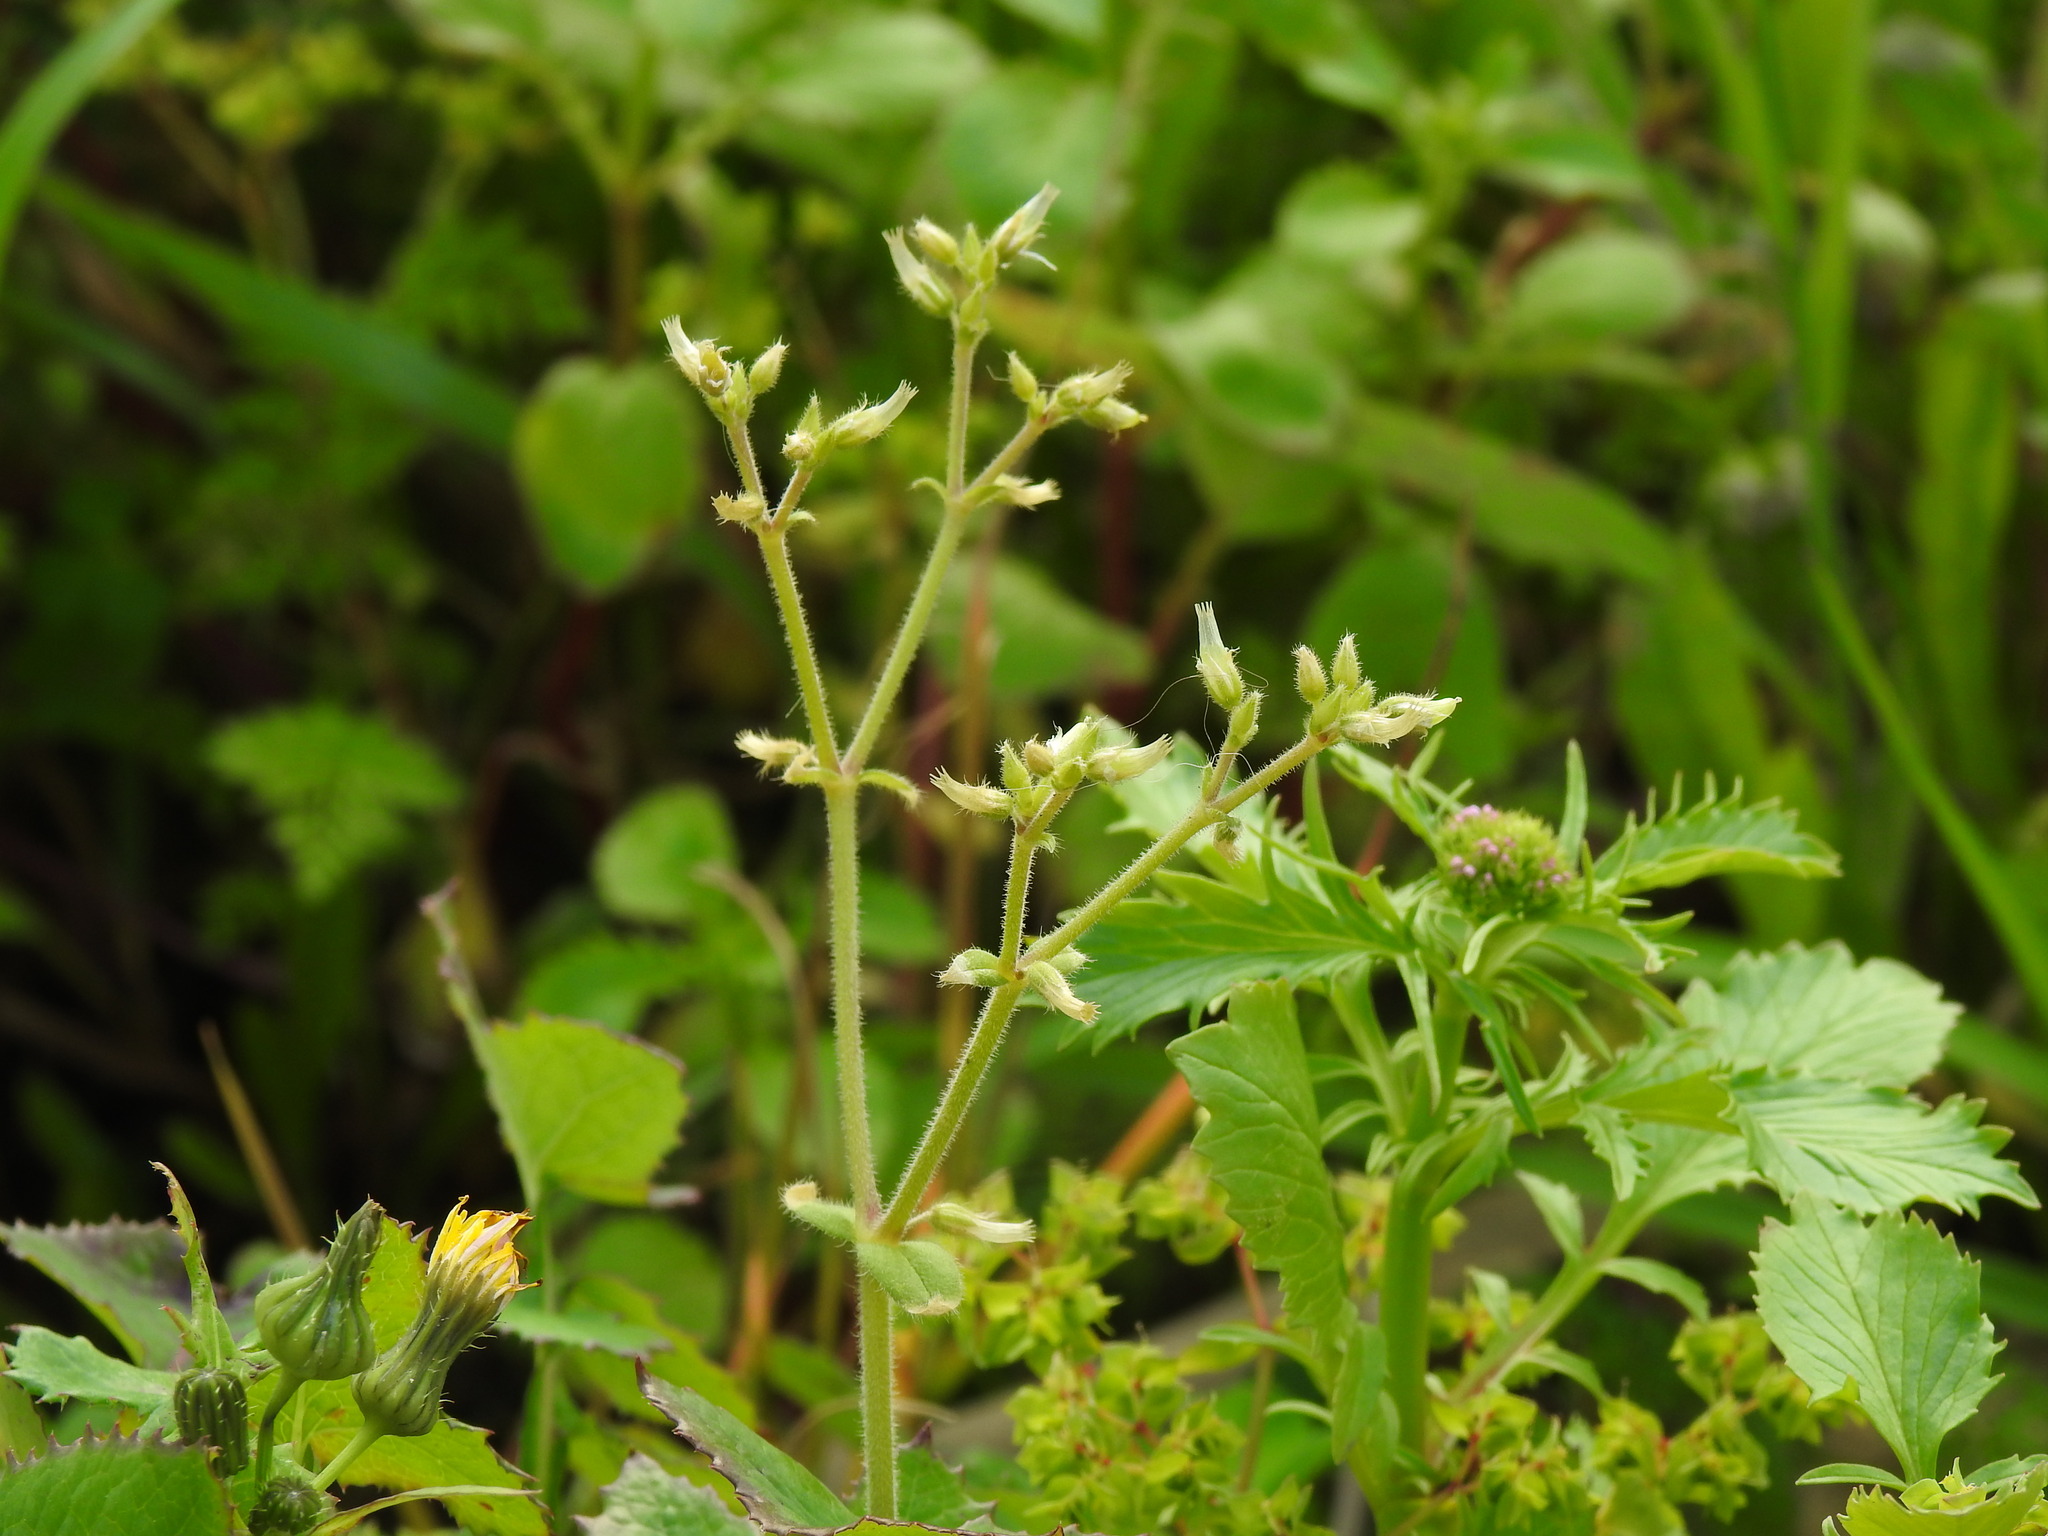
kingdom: Plantae
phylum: Tracheophyta
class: Magnoliopsida
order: Caryophyllales
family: Caryophyllaceae
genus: Cerastium
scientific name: Cerastium glomeratum
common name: Sticky chickweed
